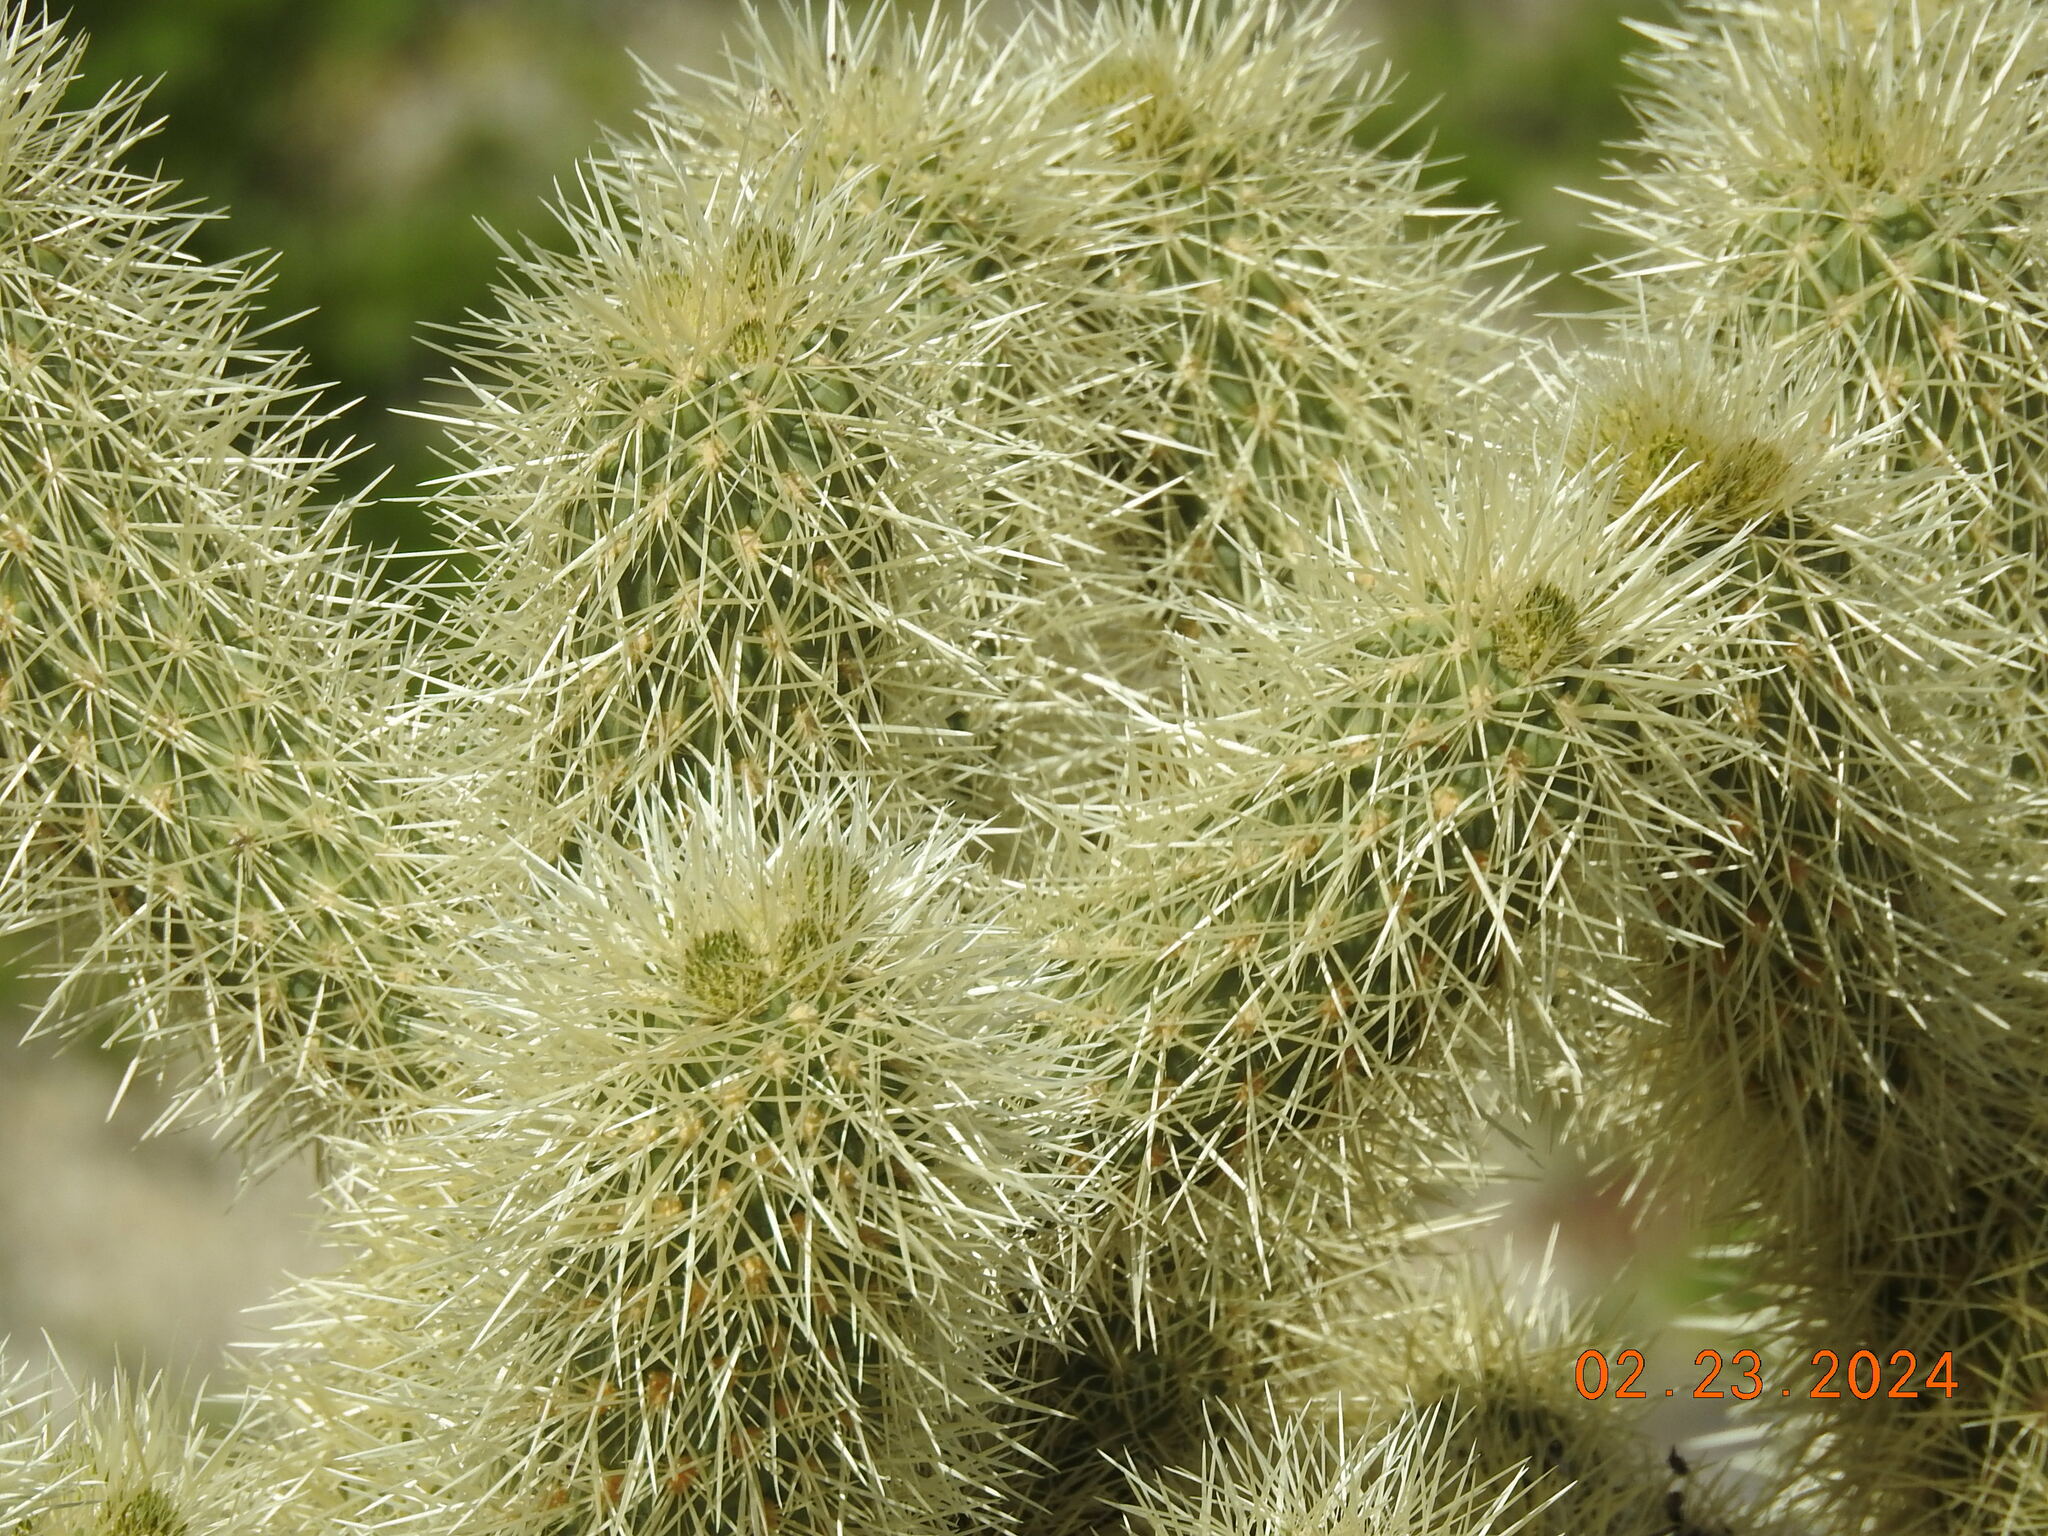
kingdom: Plantae
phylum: Tracheophyta
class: Magnoliopsida
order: Caryophyllales
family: Cactaceae
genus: Cylindropuntia
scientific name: Cylindropuntia fosbergii
